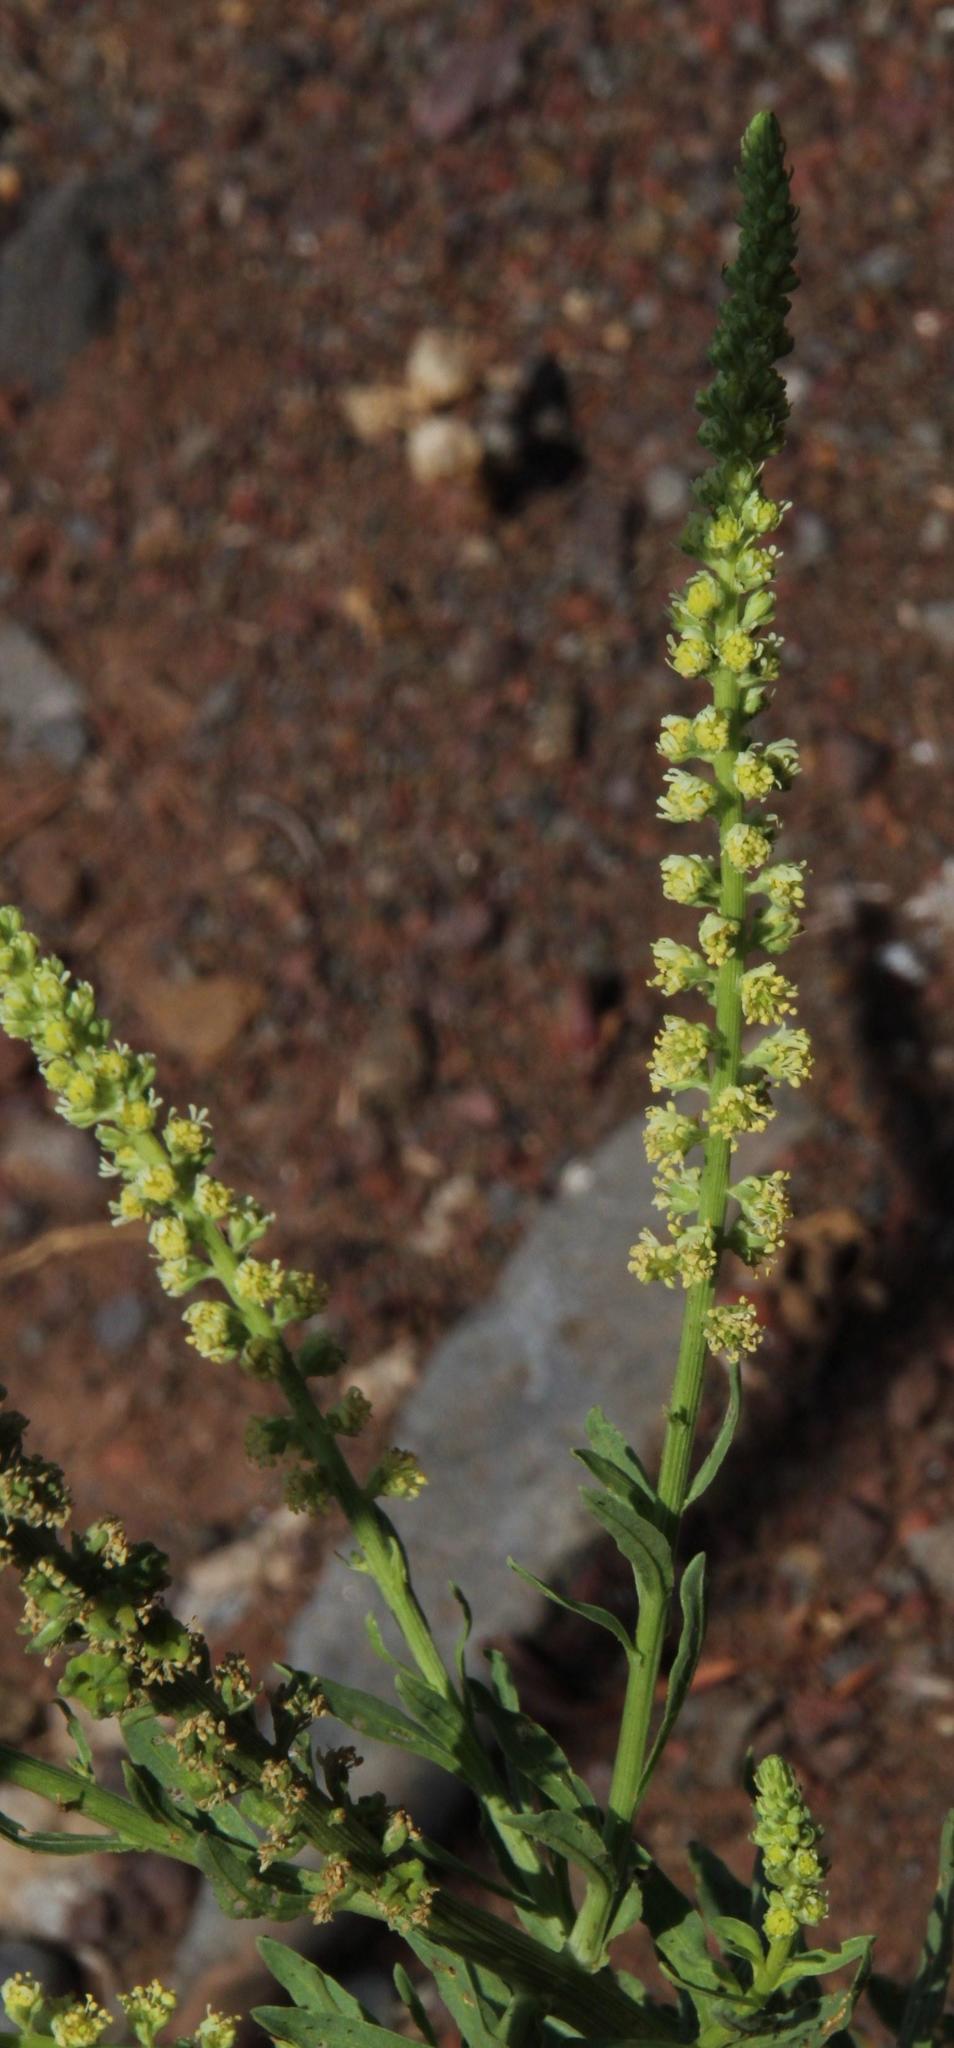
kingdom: Plantae
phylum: Tracheophyta
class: Magnoliopsida
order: Brassicales
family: Resedaceae
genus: Reseda
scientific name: Reseda luteola
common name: Weld
